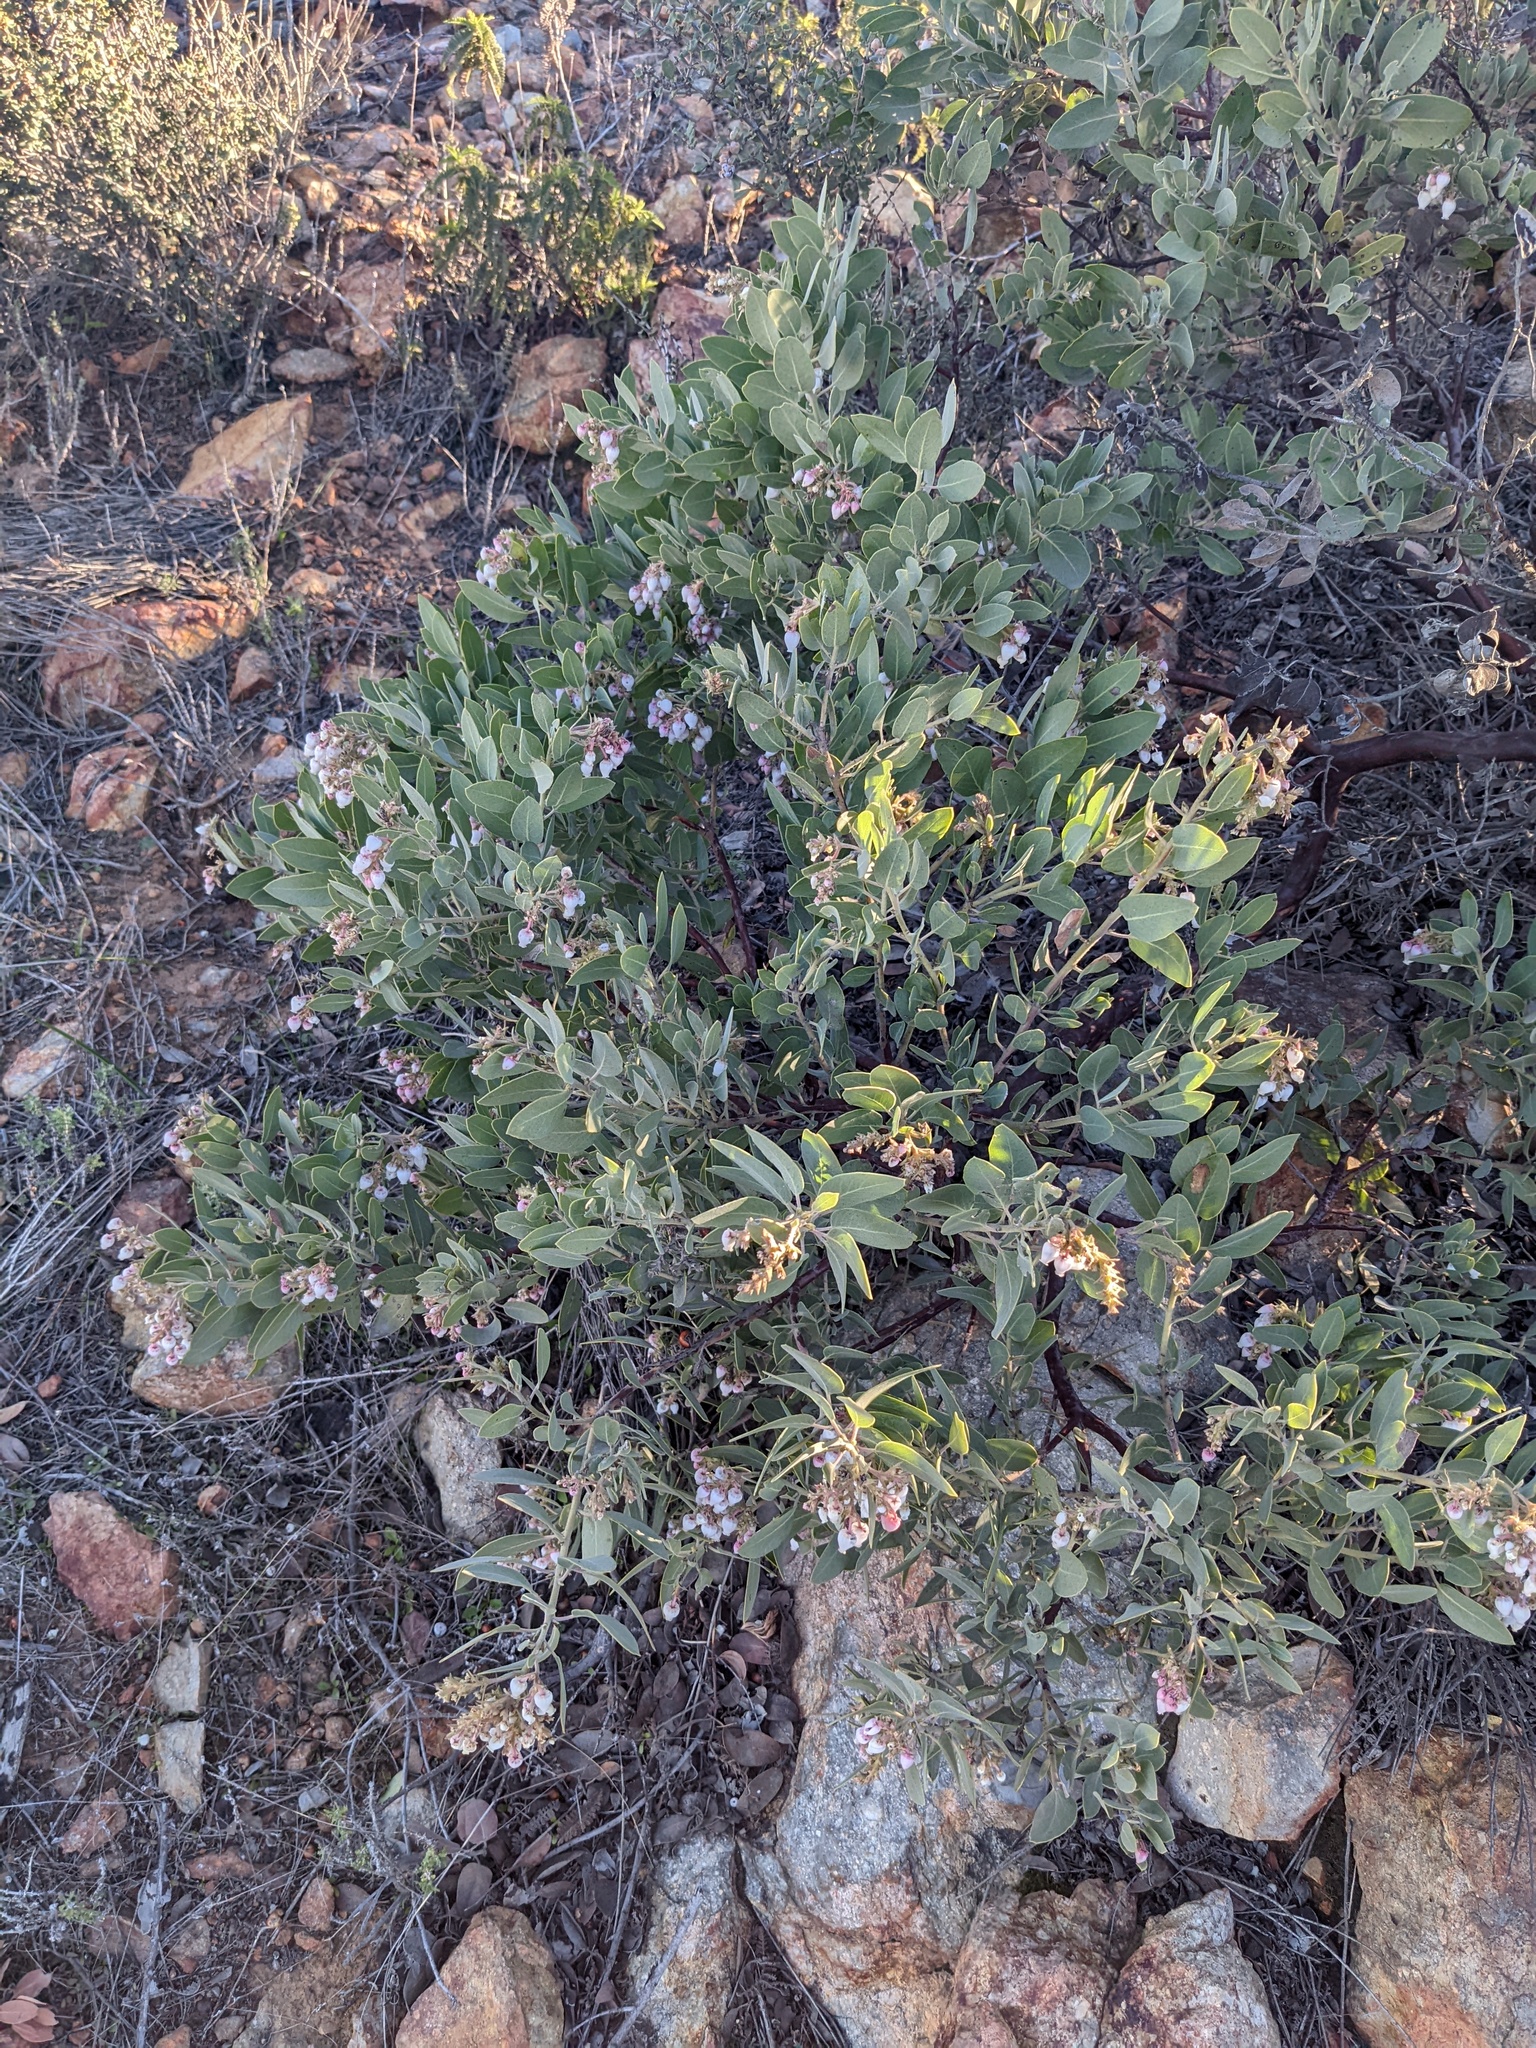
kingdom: Plantae
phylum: Tracheophyta
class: Magnoliopsida
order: Ericales
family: Ericaceae
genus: Arctostaphylos
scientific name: Arctostaphylos otayensis
